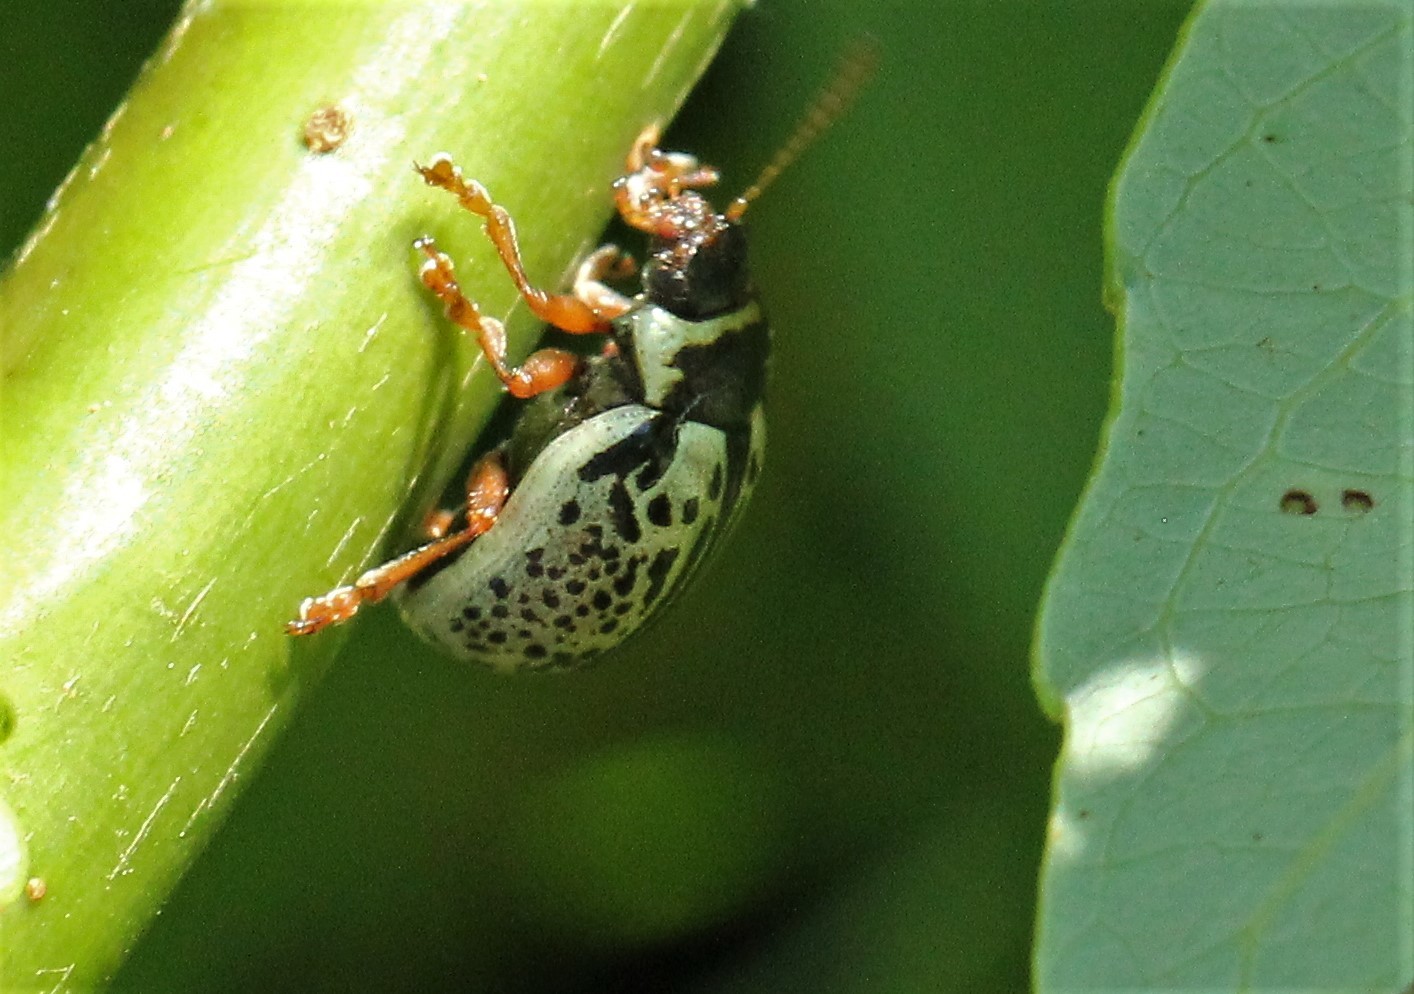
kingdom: Animalia
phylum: Arthropoda
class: Insecta
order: Coleoptera
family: Chrysomelidae
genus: Calligrapha
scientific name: Calligrapha multipunctata
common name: Common willow calligrapher beetle
